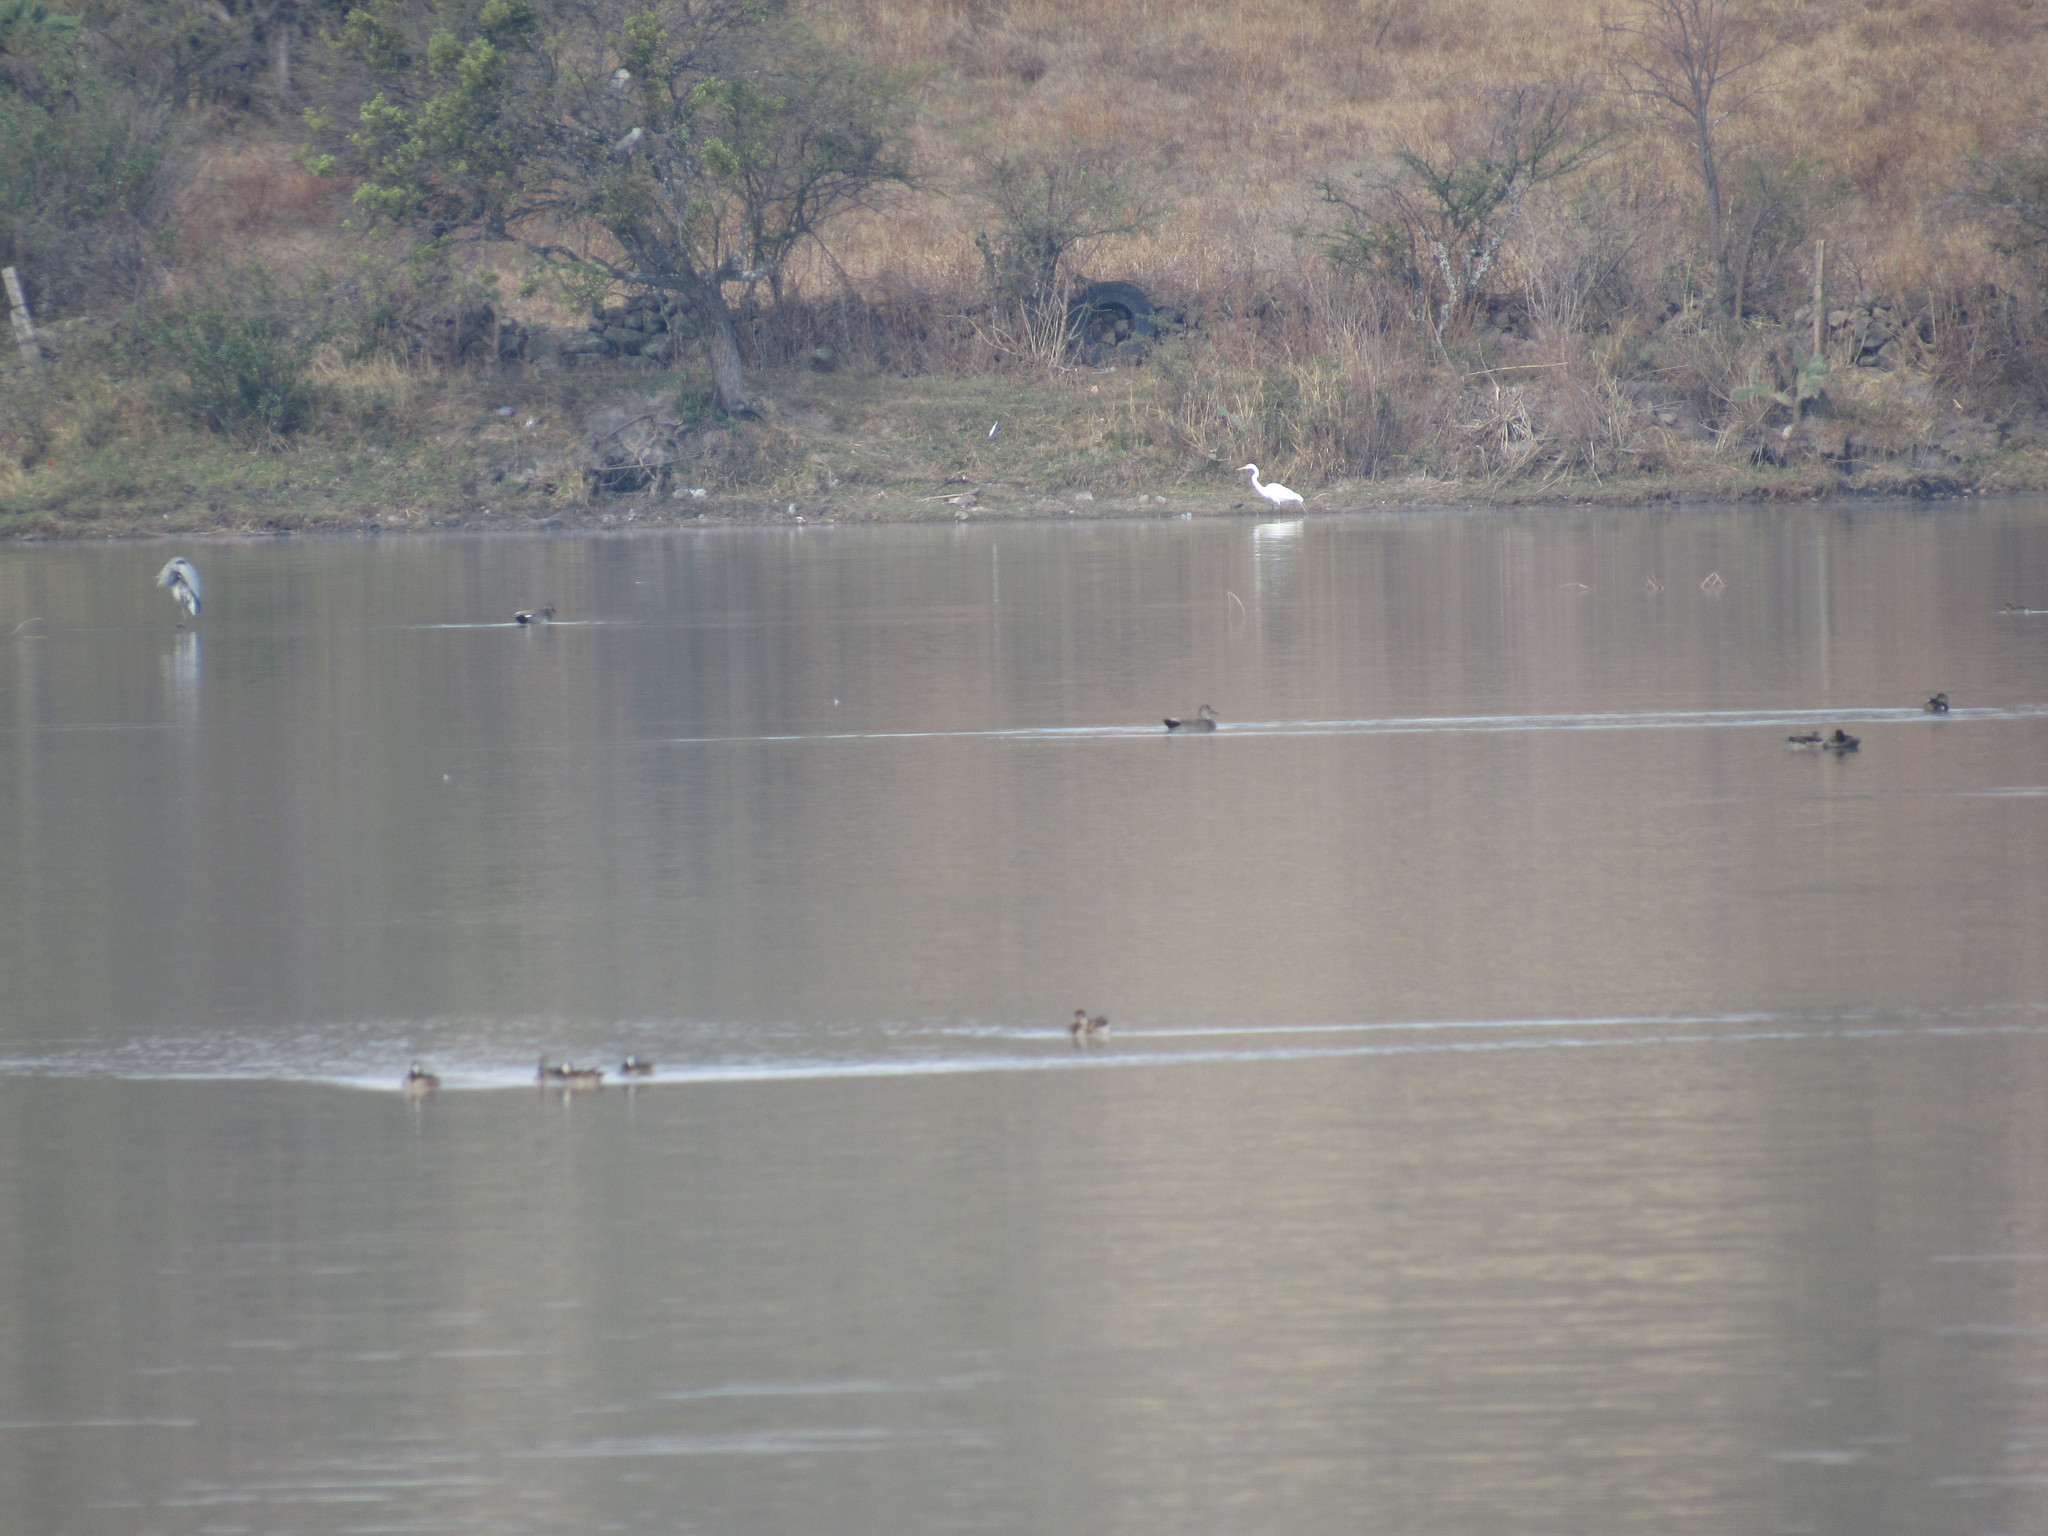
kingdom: Animalia
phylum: Chordata
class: Aves
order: Anseriformes
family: Anatidae
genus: Spatula
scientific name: Spatula discors
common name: Blue-winged teal
